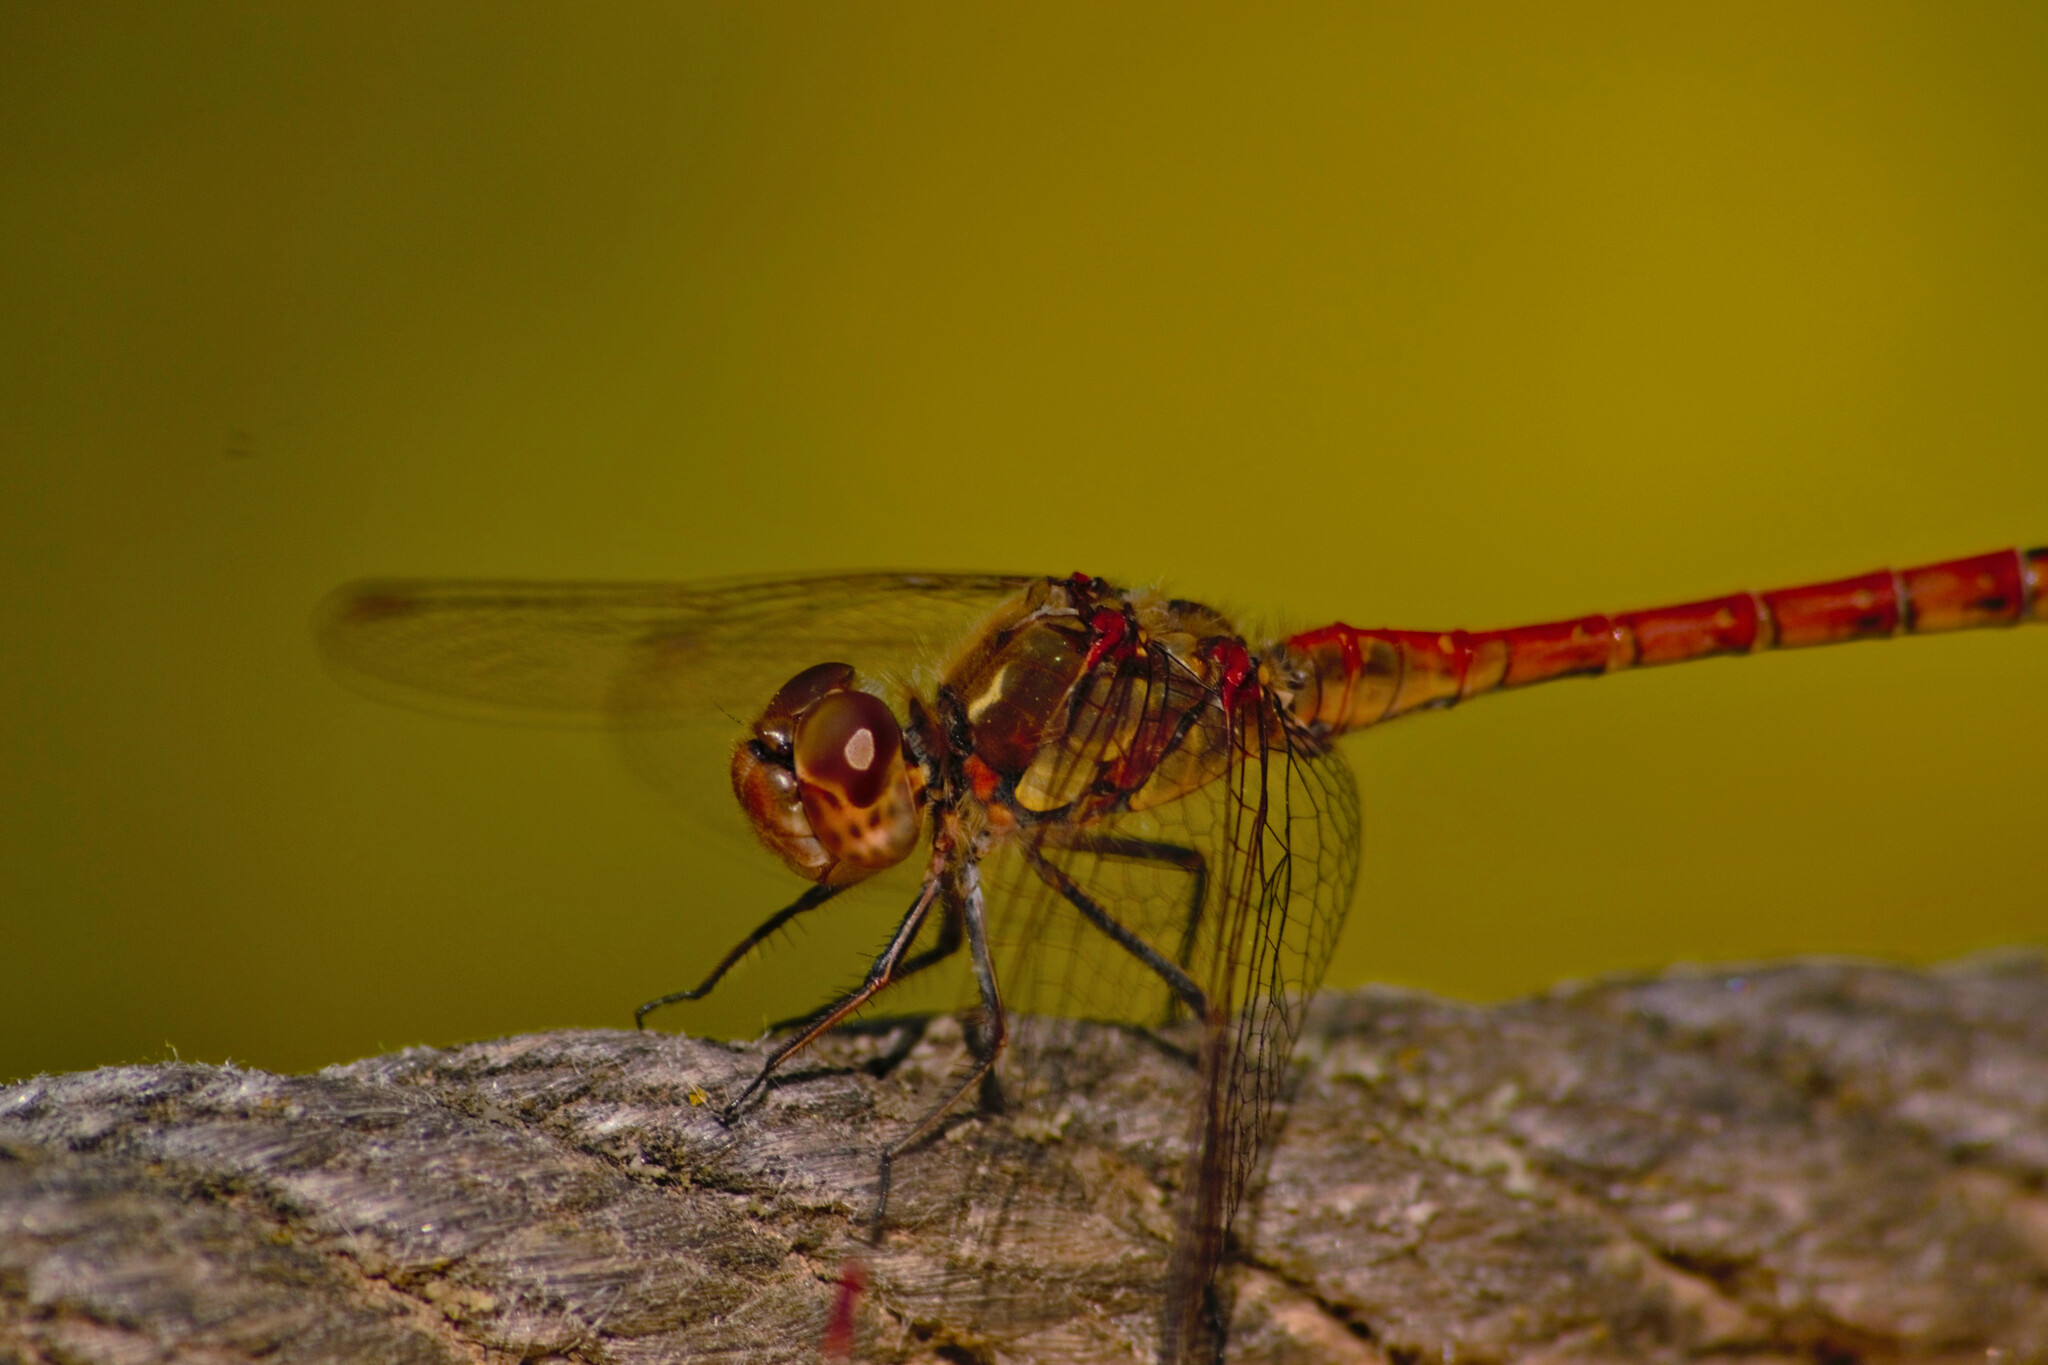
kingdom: Animalia
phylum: Arthropoda
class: Insecta
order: Odonata
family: Libellulidae
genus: Sympetrum
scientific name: Sympetrum striolatum
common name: Common darter
